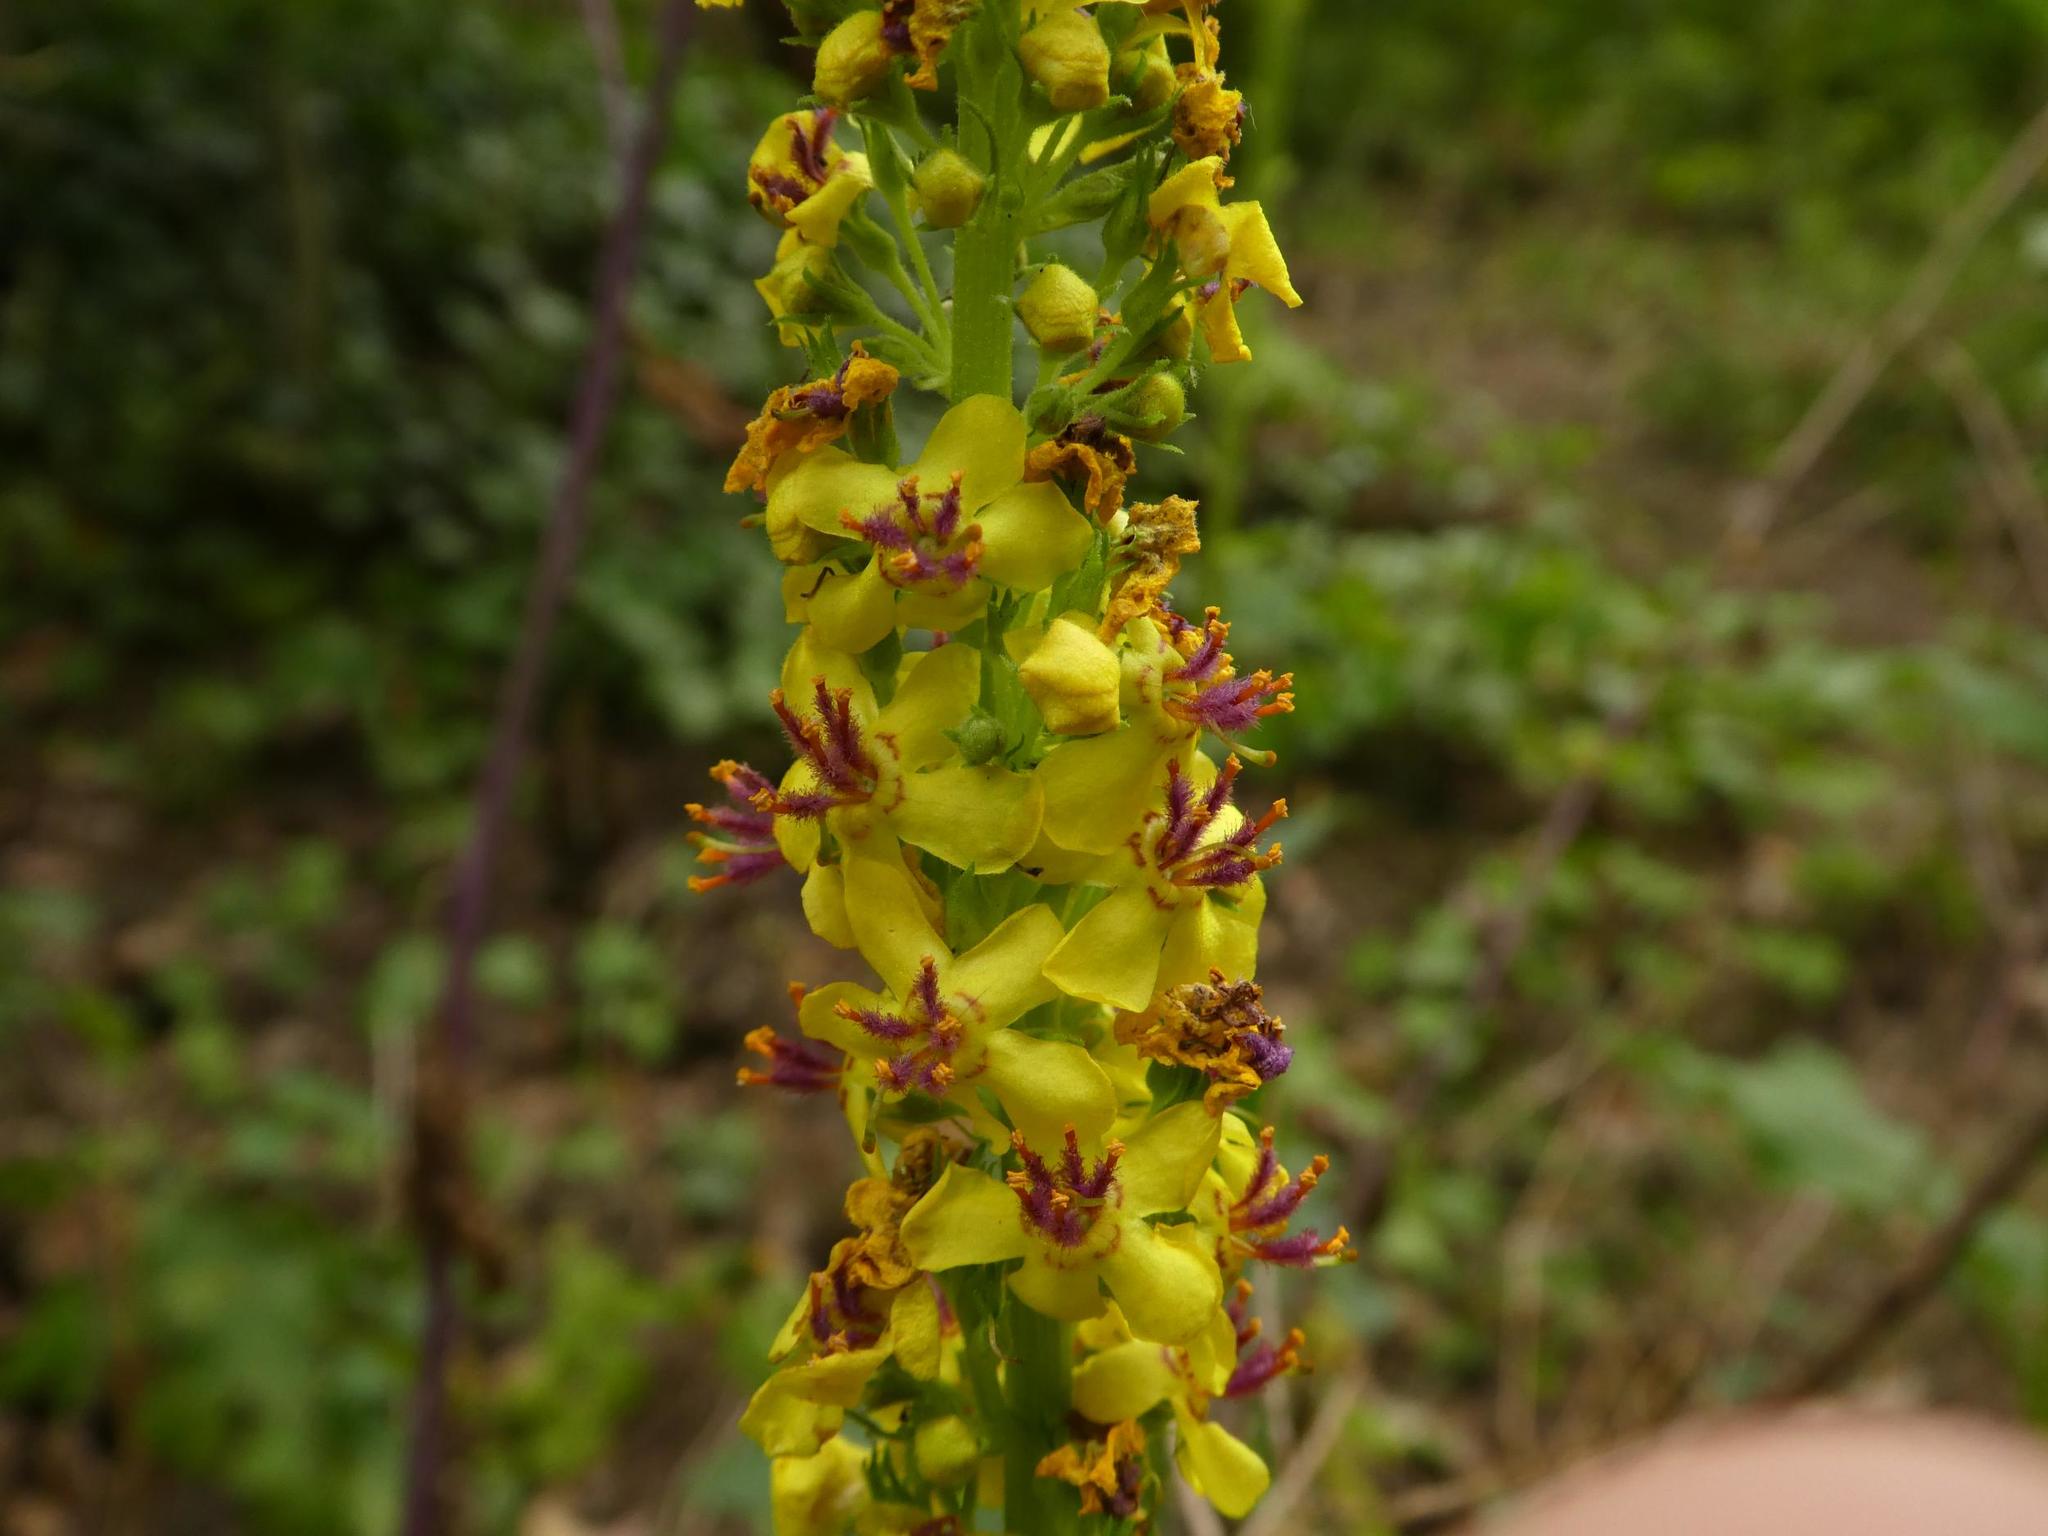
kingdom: Plantae
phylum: Tracheophyta
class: Magnoliopsida
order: Lamiales
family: Scrophulariaceae
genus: Verbascum
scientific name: Verbascum nigrum
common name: Dark mullein
